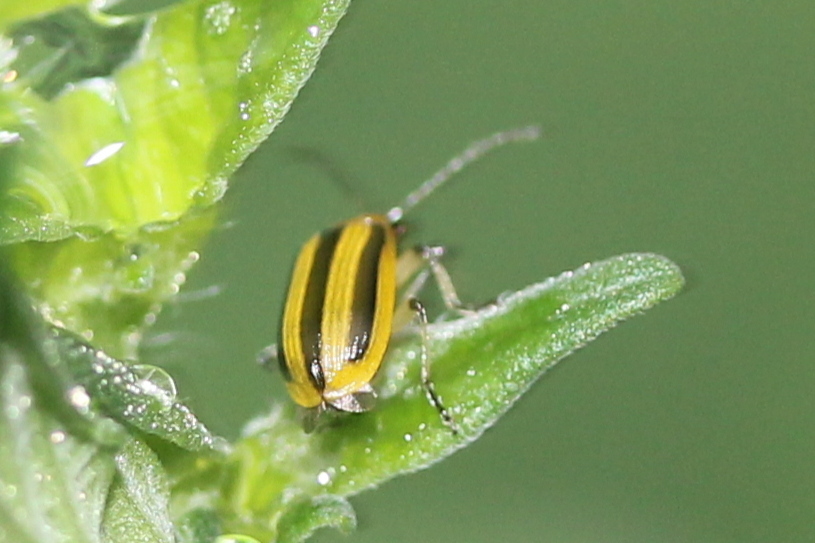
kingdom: Animalia
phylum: Arthropoda
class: Insecta
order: Coleoptera
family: Chrysomelidae
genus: Acalymma
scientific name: Acalymma vittatum
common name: Striped cucumber beetle
